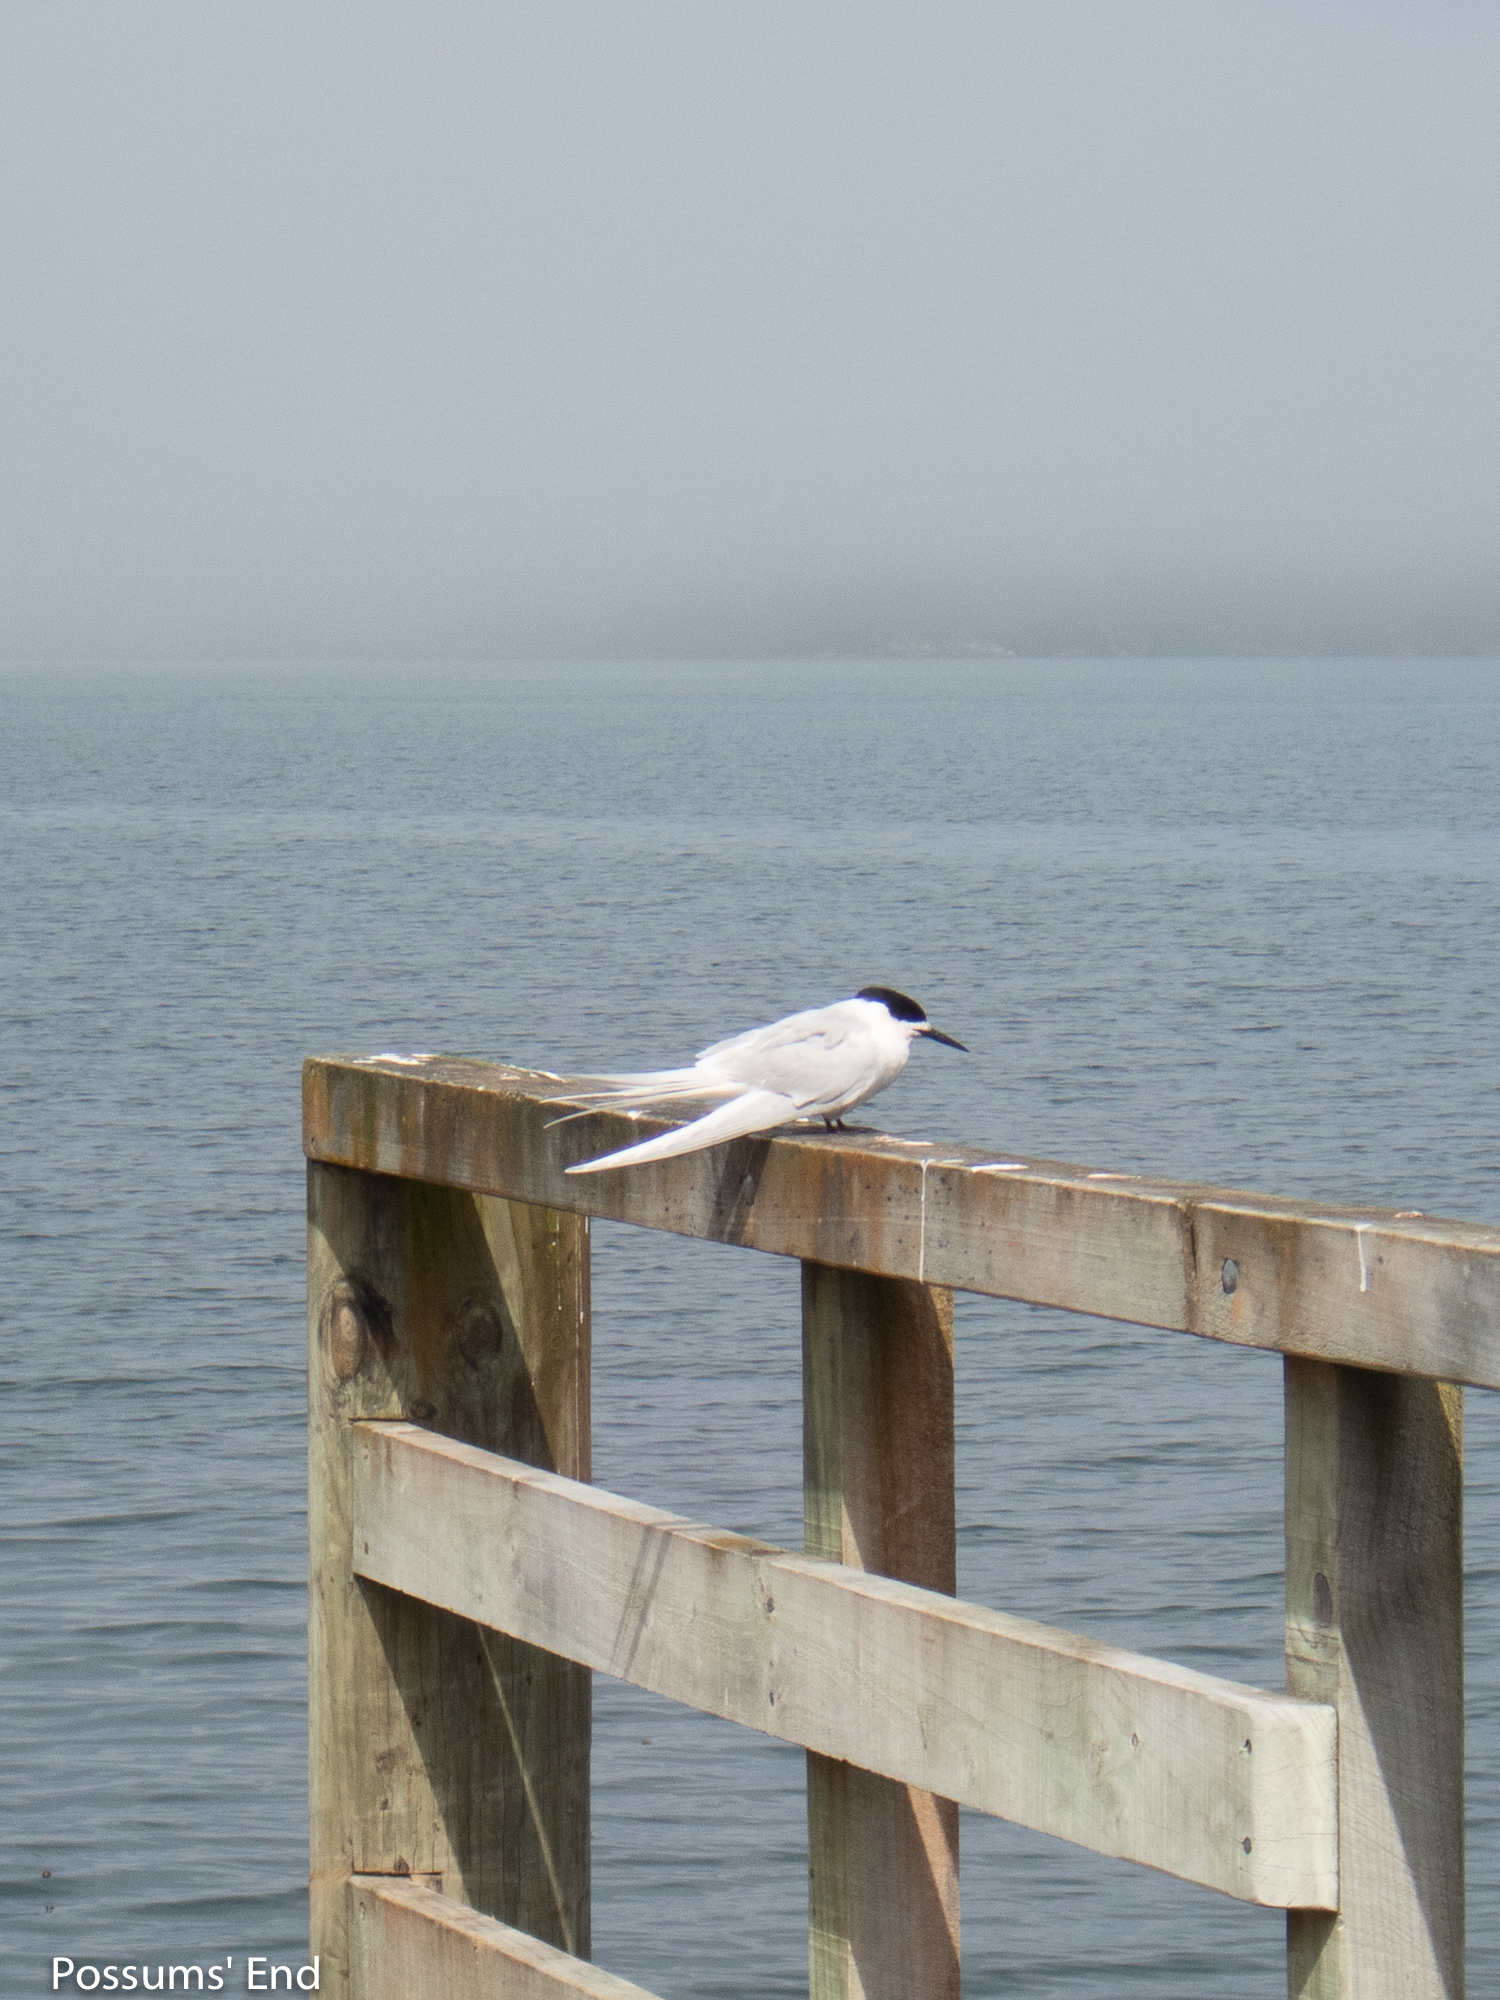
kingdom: Animalia
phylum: Chordata
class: Aves
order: Charadriiformes
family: Laridae
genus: Sterna
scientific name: Sterna striata
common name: White-fronted tern
